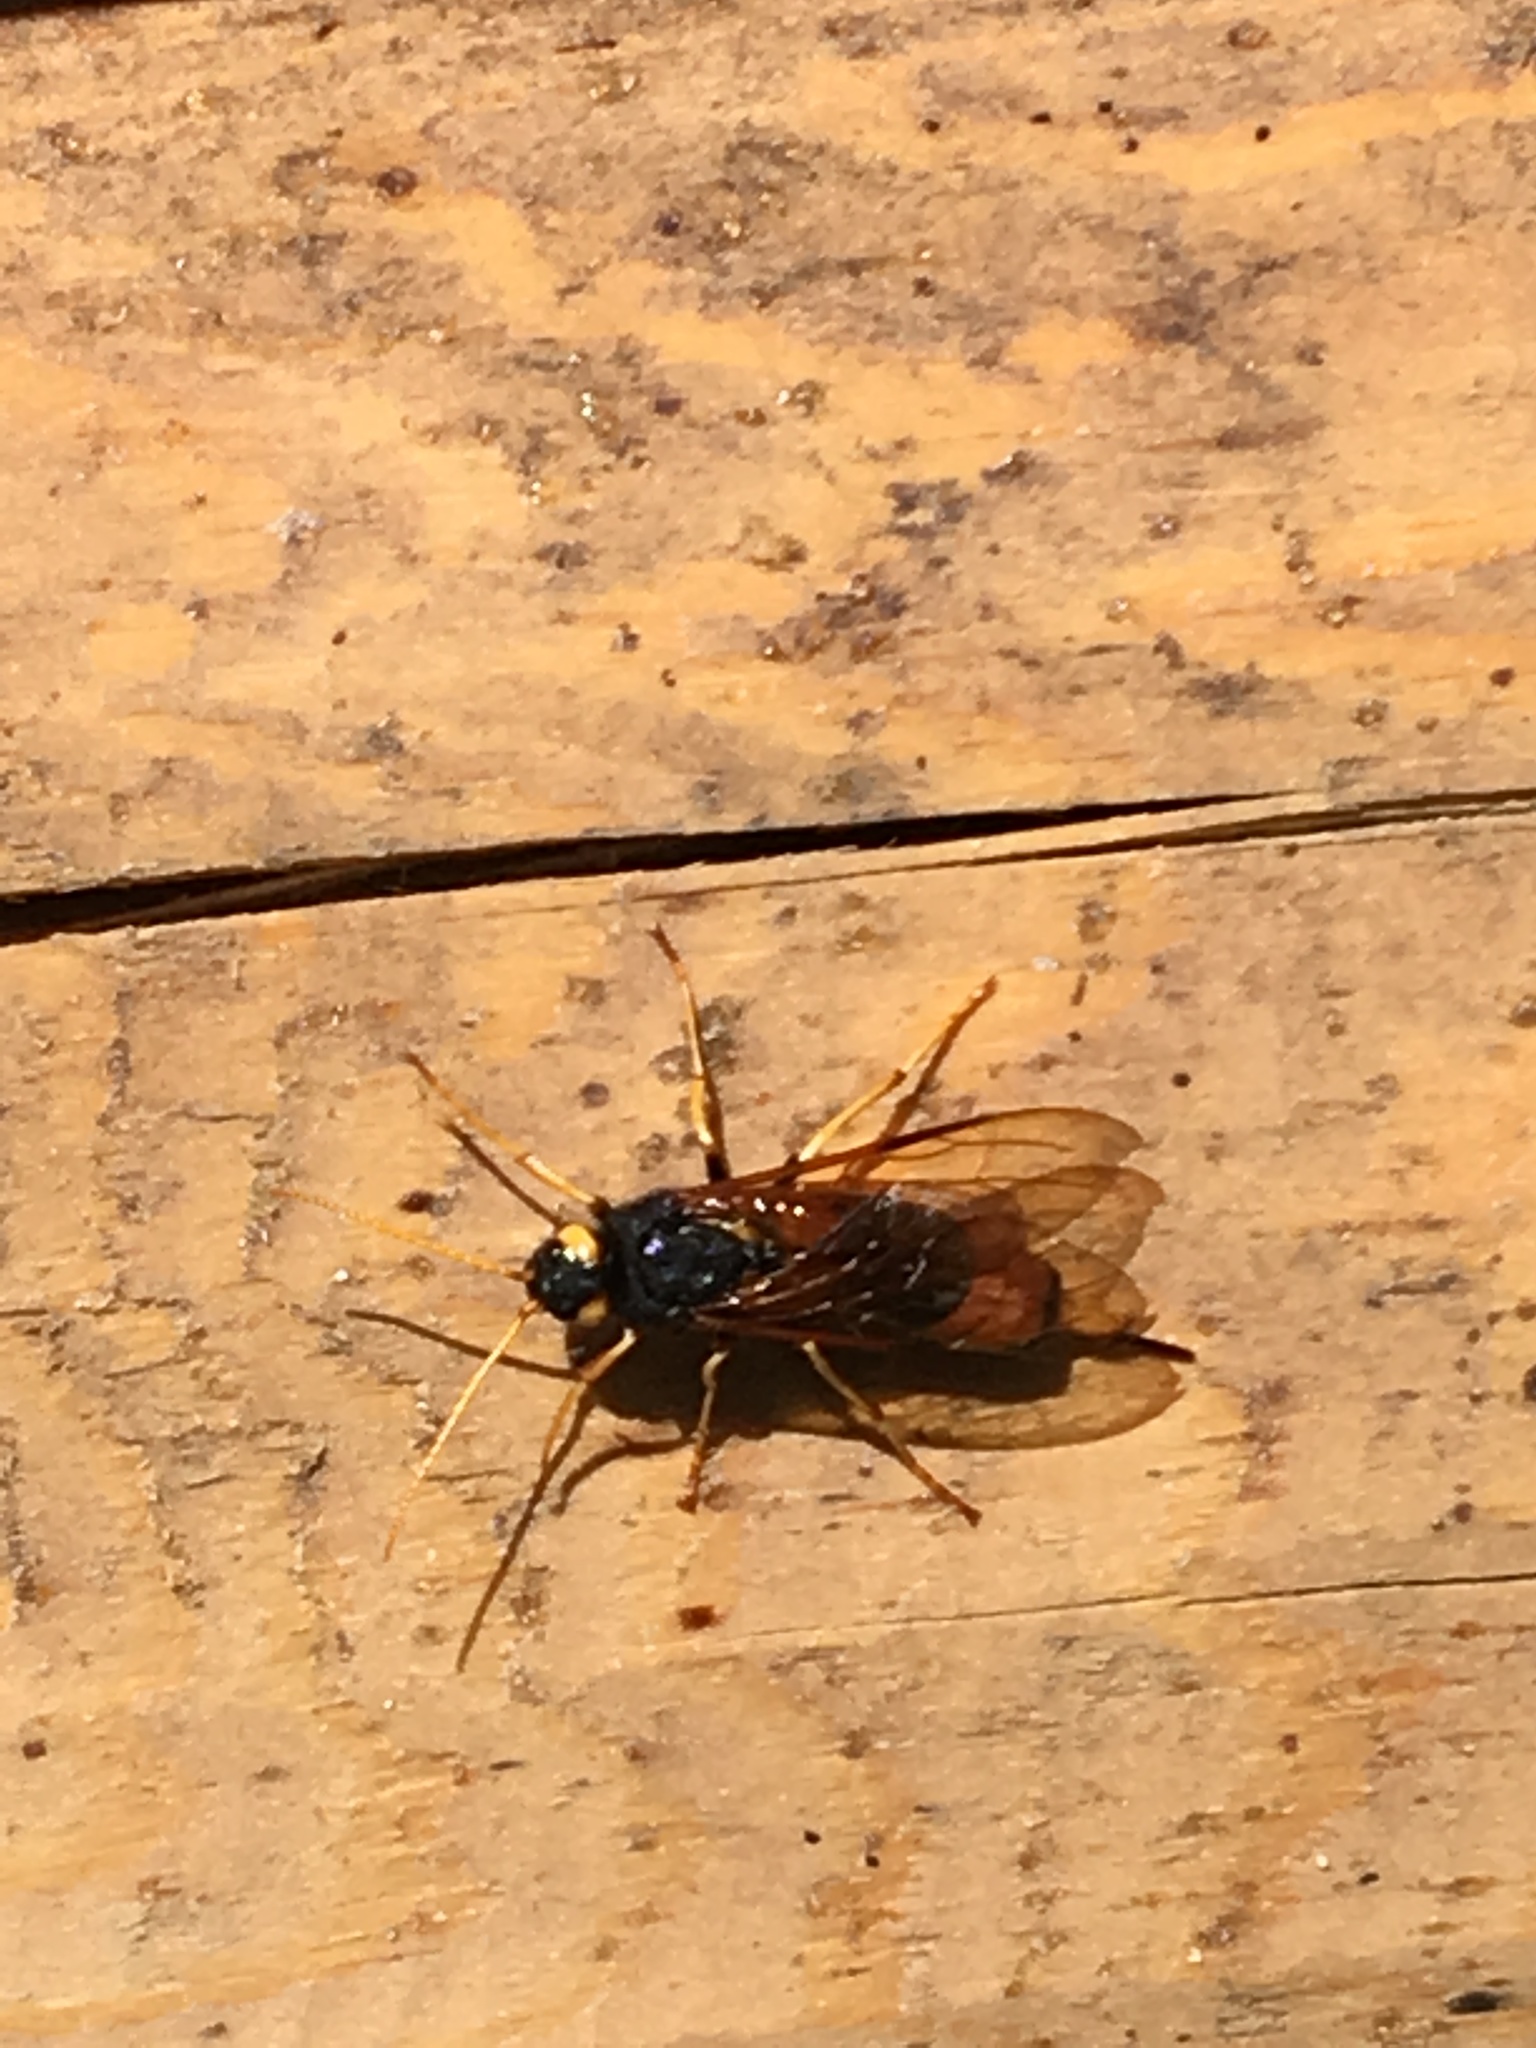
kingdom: Animalia
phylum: Arthropoda
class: Insecta
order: Hymenoptera
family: Siricidae
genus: Urocerus
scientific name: Urocerus gigas
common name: Giant woodwasp
